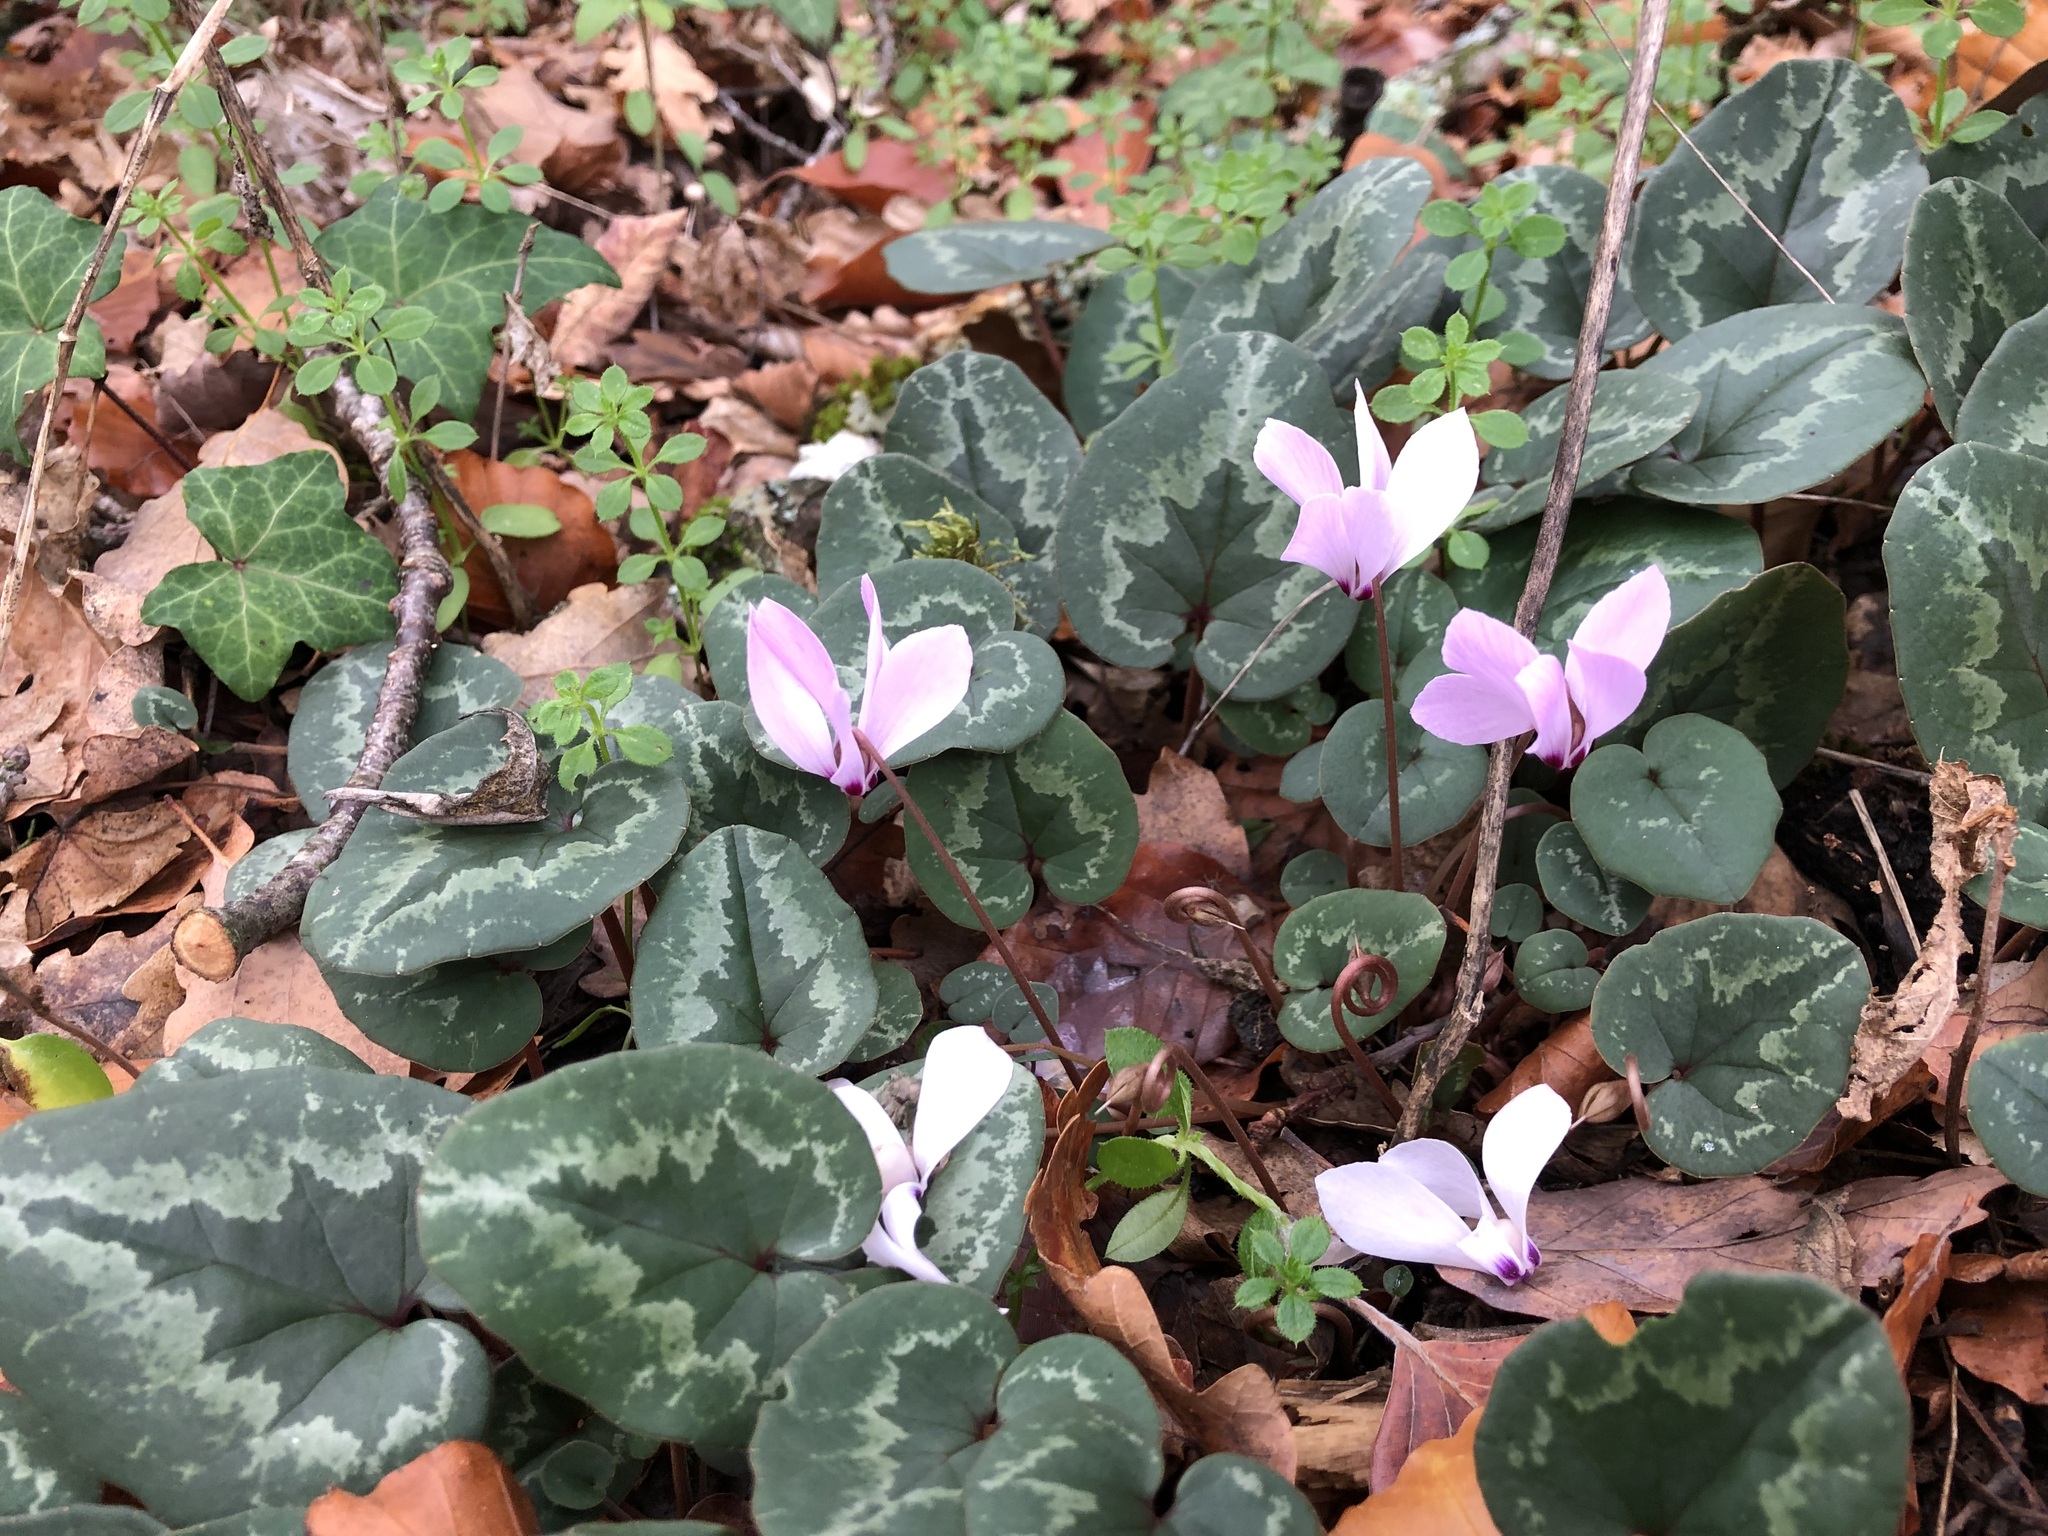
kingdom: Plantae
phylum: Tracheophyta
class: Magnoliopsida
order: Ericales
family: Primulaceae
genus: Cyclamen
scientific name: Cyclamen purpurascens
